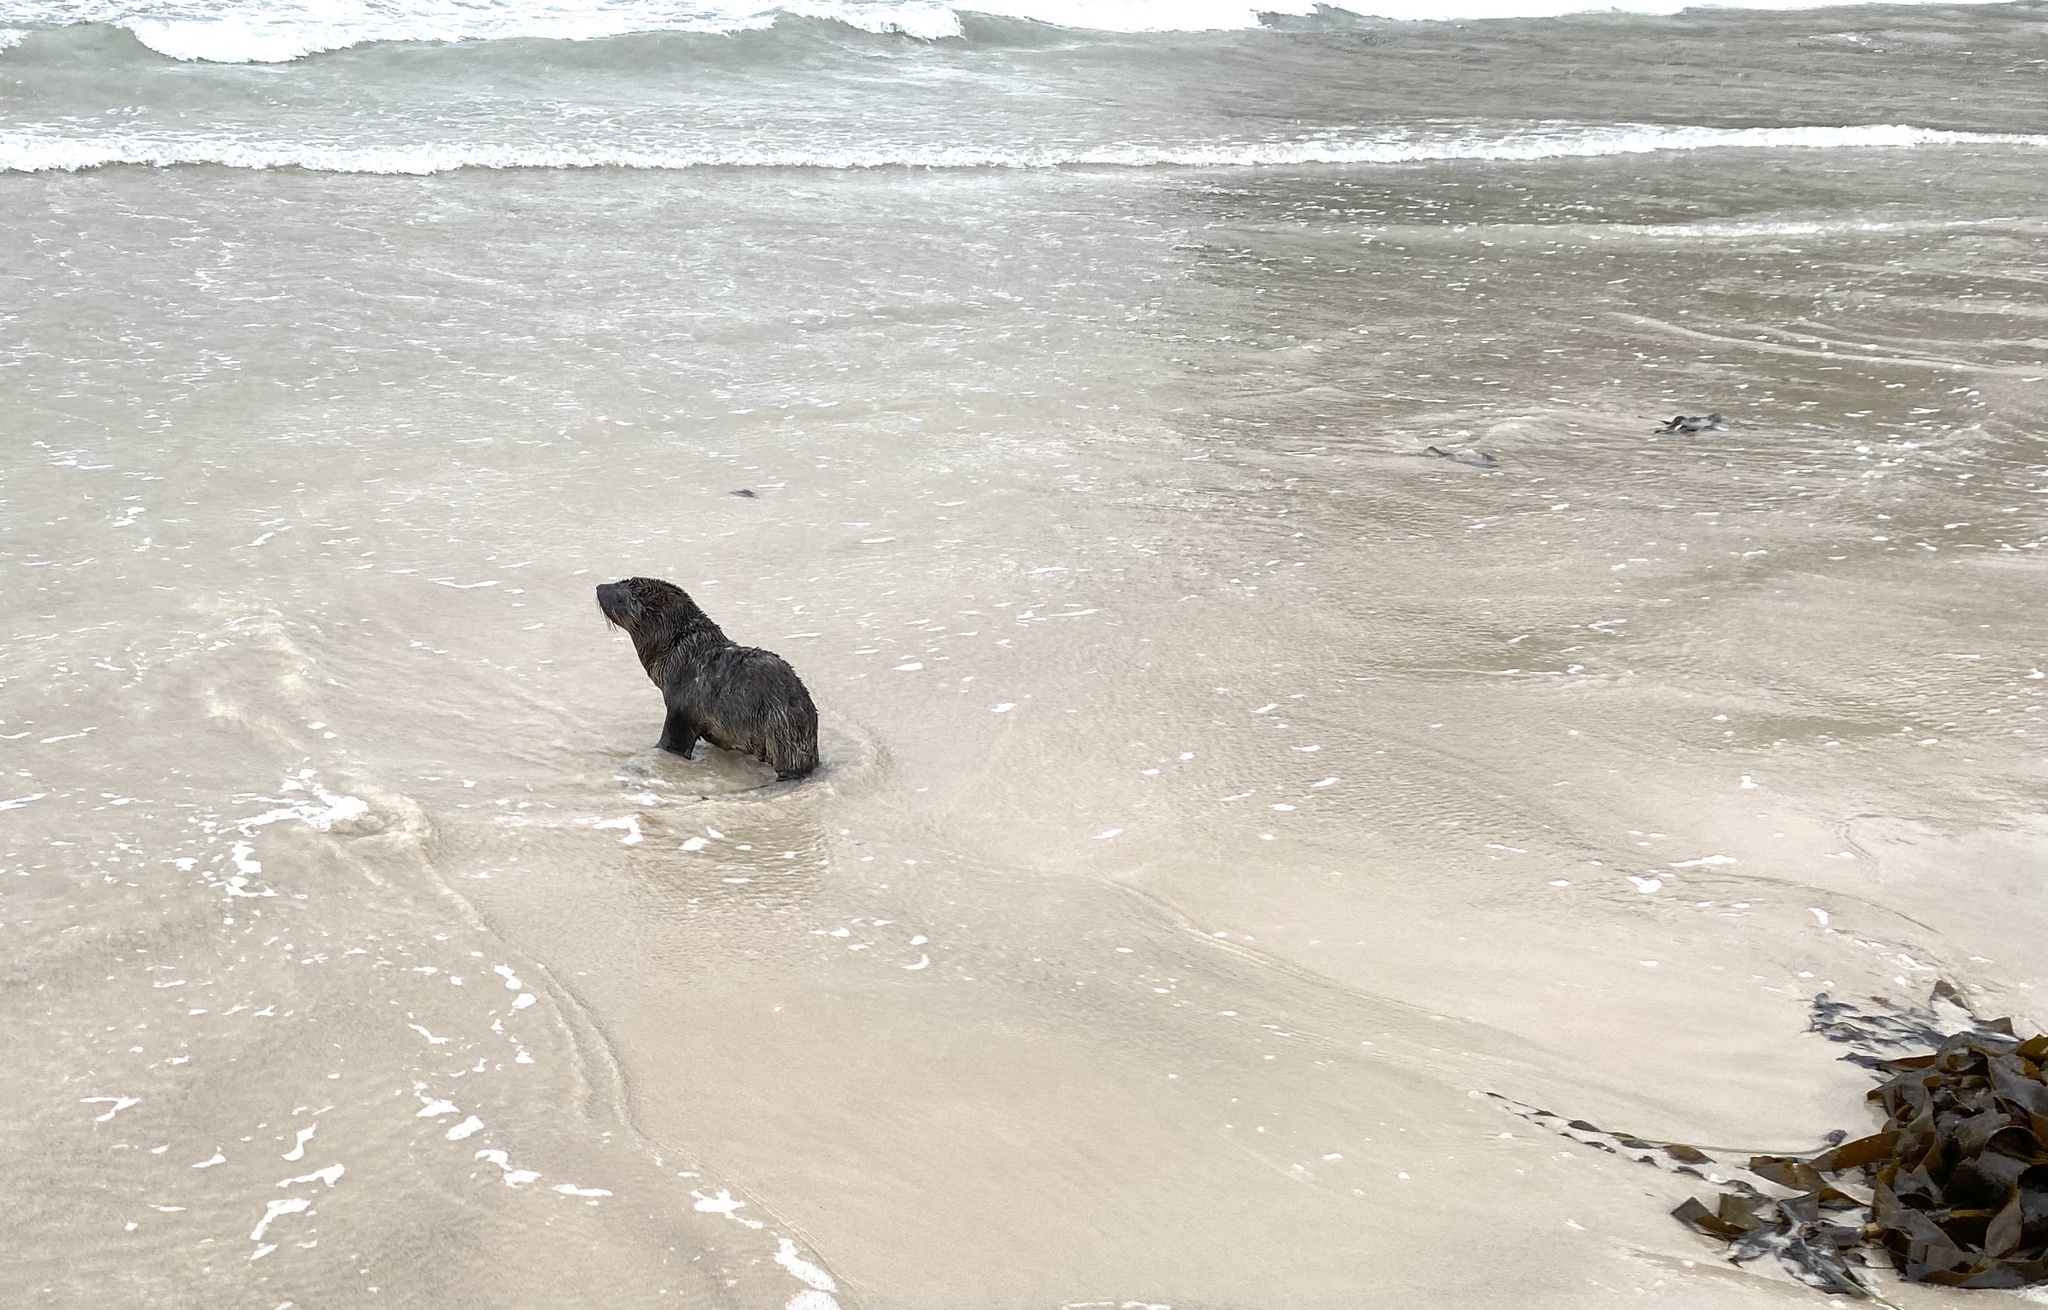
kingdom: Animalia
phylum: Chordata
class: Mammalia
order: Carnivora
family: Otariidae
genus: Arctocephalus
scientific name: Arctocephalus pusillus
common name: Brown fur seal
